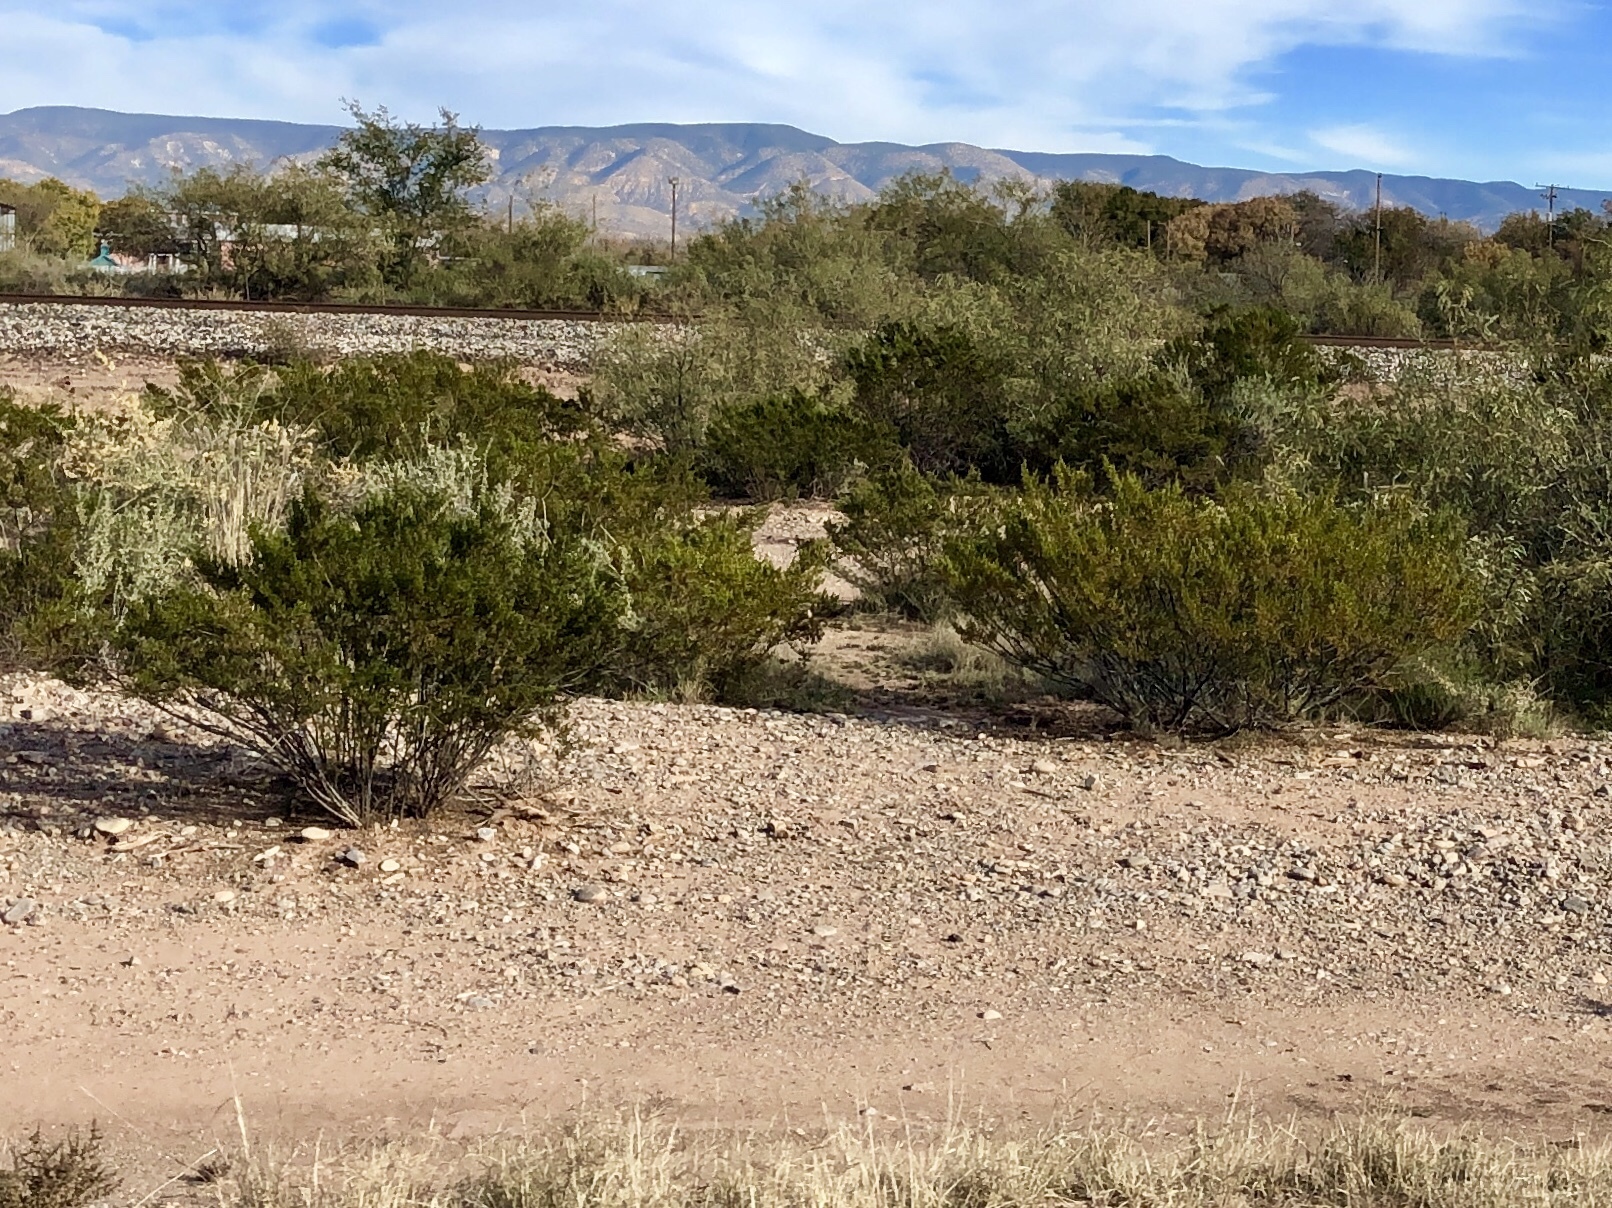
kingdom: Plantae
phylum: Tracheophyta
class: Magnoliopsida
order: Zygophyllales
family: Zygophyllaceae
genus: Larrea
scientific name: Larrea tridentata
